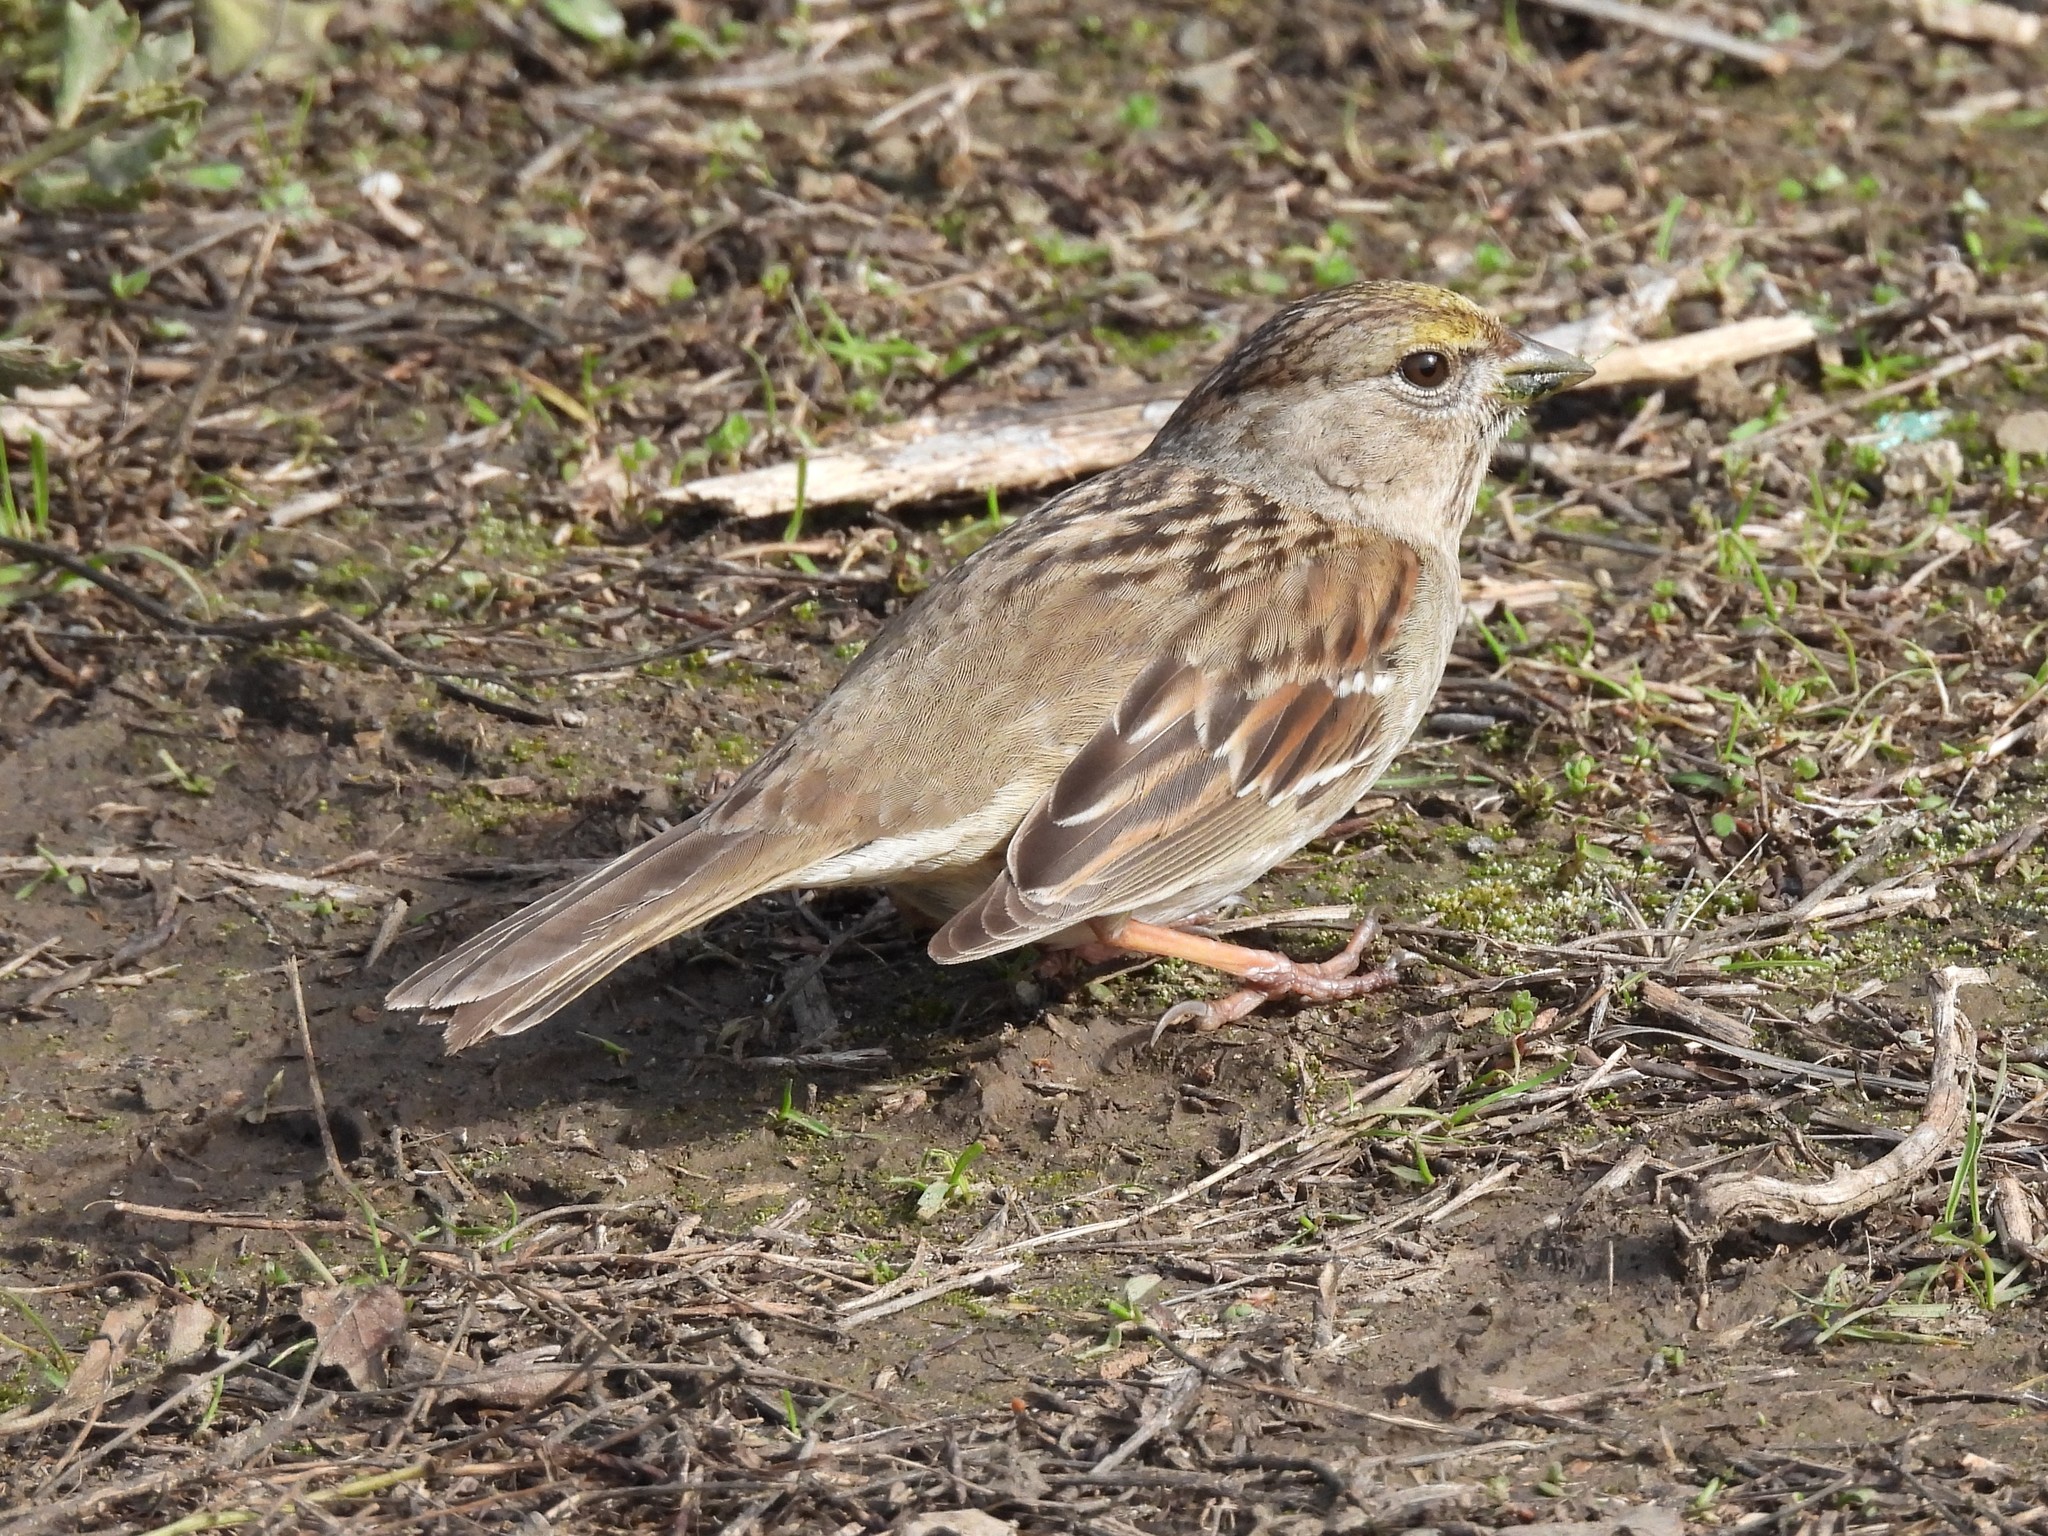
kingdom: Animalia
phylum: Chordata
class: Aves
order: Passeriformes
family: Passerellidae
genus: Zonotrichia
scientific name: Zonotrichia atricapilla
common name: Golden-crowned sparrow
